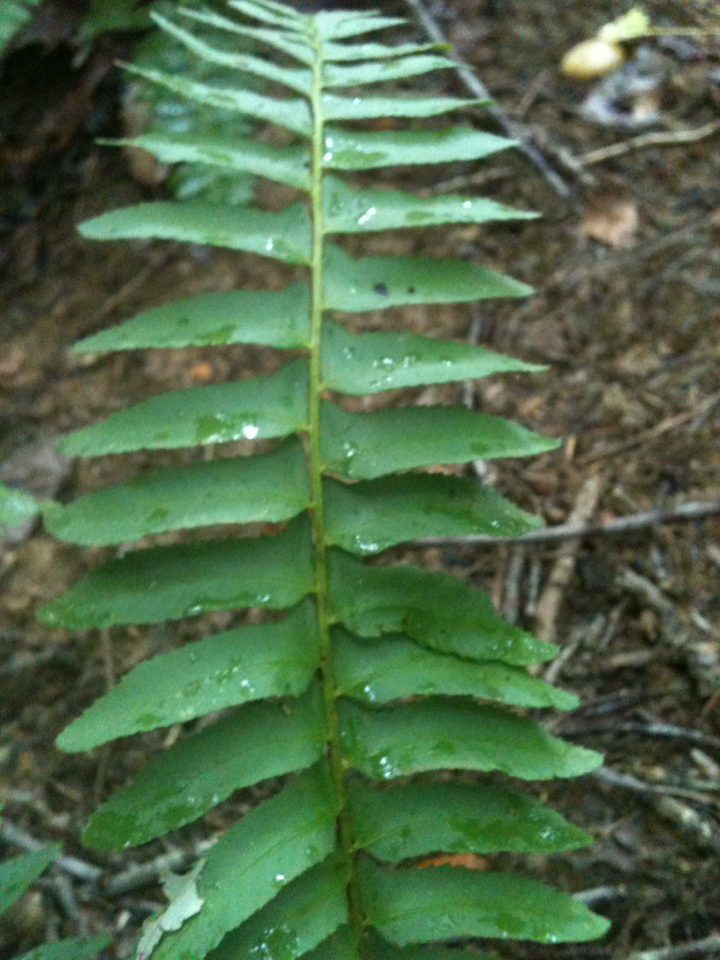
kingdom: Plantae
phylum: Tracheophyta
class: Polypodiopsida
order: Polypodiales
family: Dryopteridaceae
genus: Polystichum
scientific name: Polystichum acrostichoides
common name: Christmas fern
